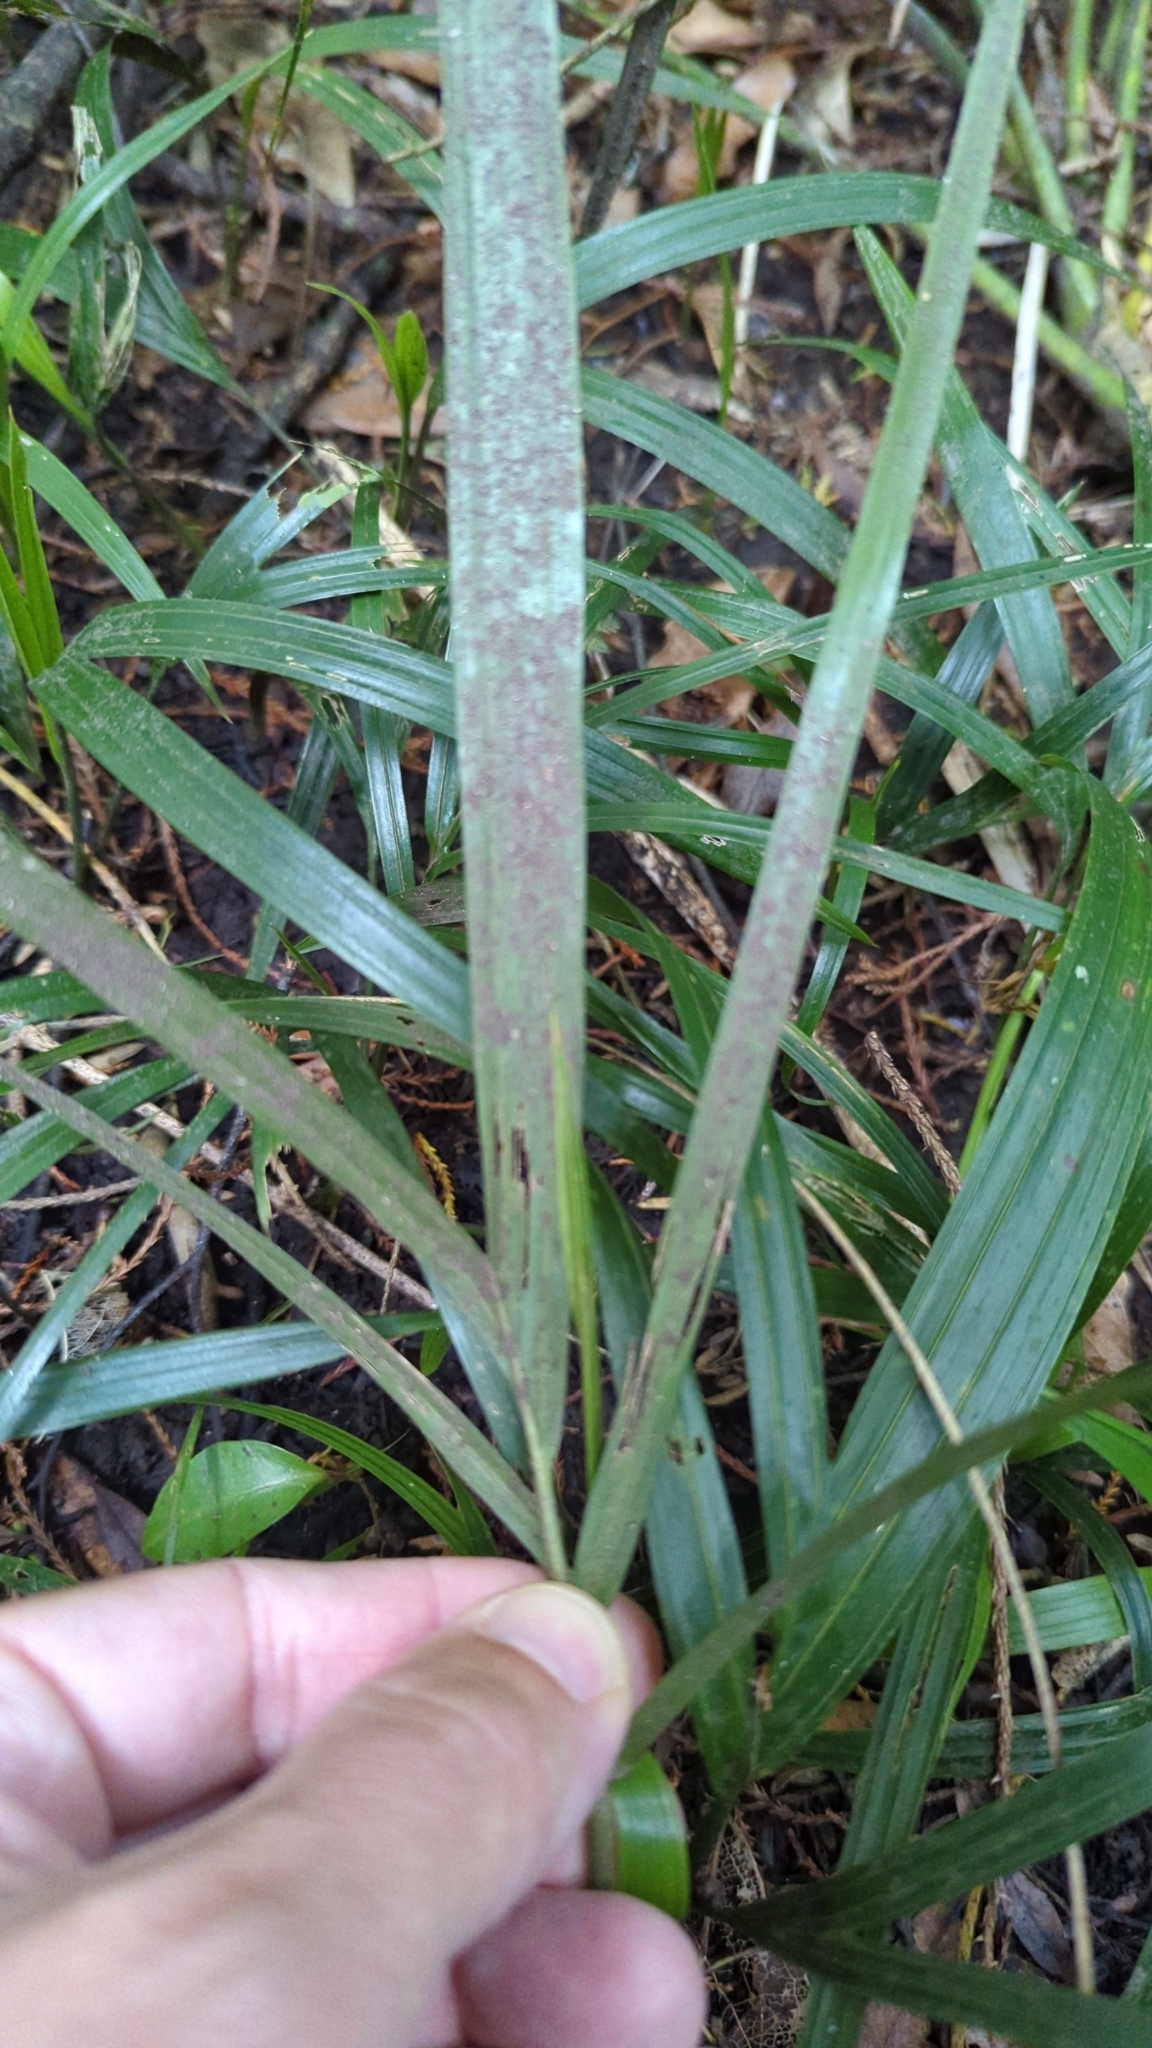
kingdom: Plantae
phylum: Tracheophyta
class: Liliopsida
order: Poales
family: Poaceae
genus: Ehrharta
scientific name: Ehrharta diplax
